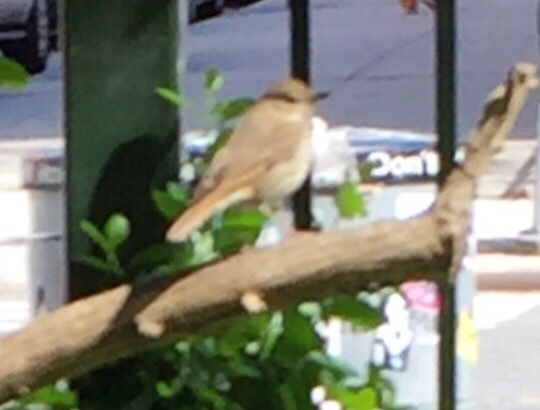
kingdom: Animalia
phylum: Chordata
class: Aves
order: Passeriformes
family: Turdidae
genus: Catharus
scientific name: Catharus guttatus
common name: Hermit thrush
